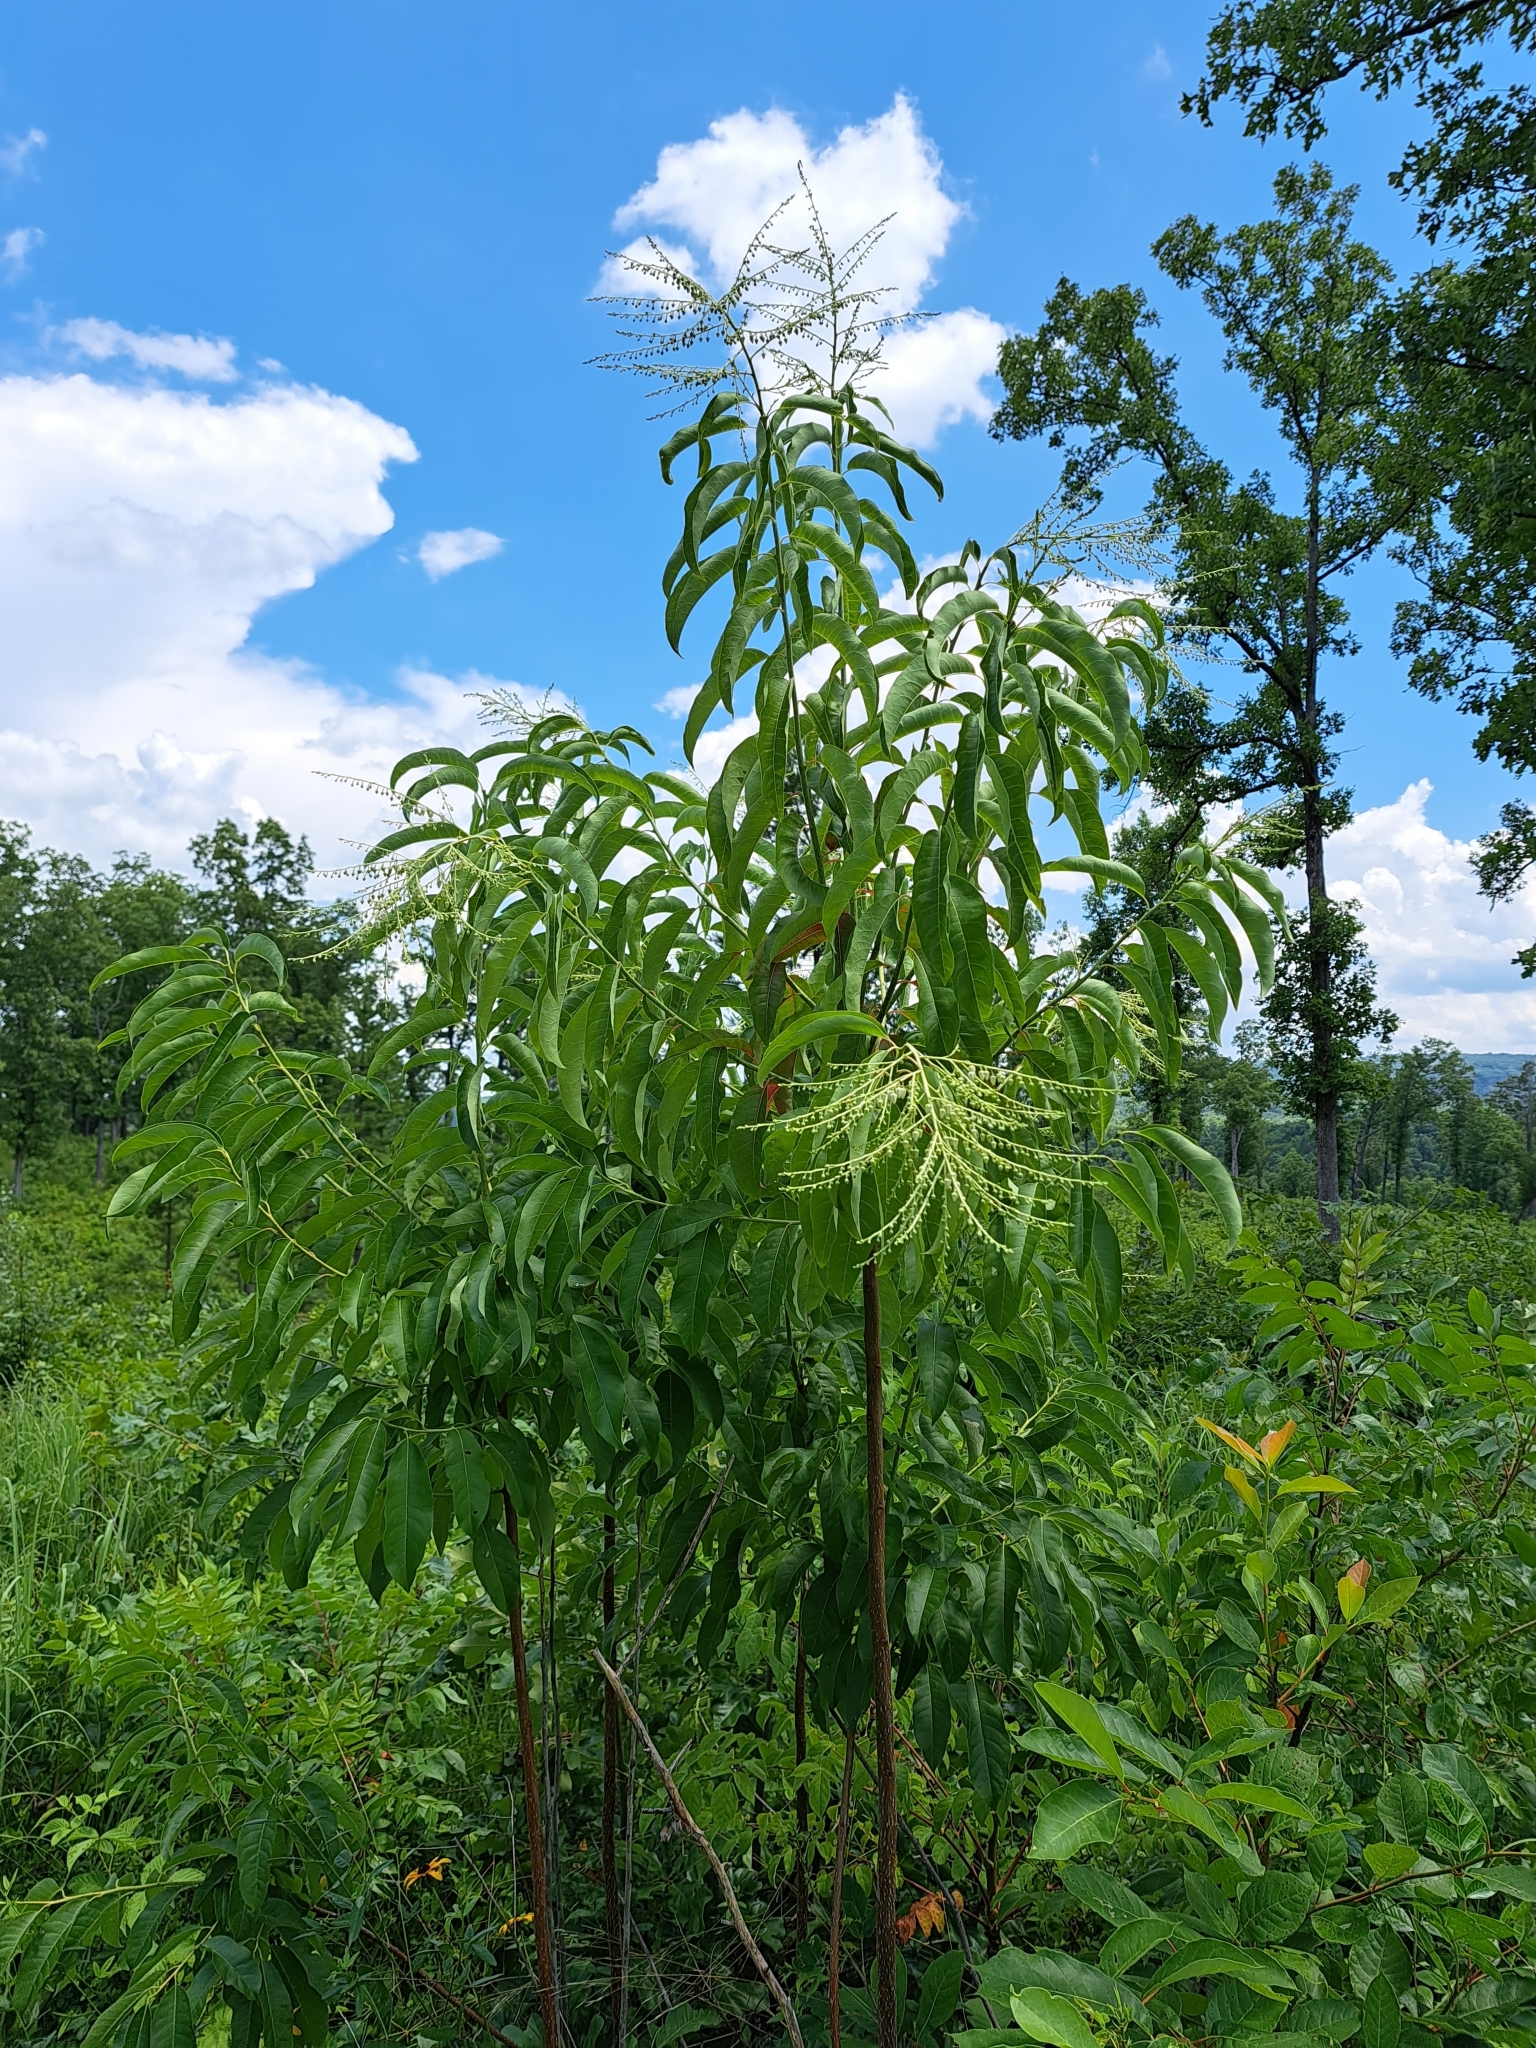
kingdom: Plantae
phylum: Tracheophyta
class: Magnoliopsida
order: Ericales
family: Ericaceae
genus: Oxydendrum
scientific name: Oxydendrum arboreum
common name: Sourwood
